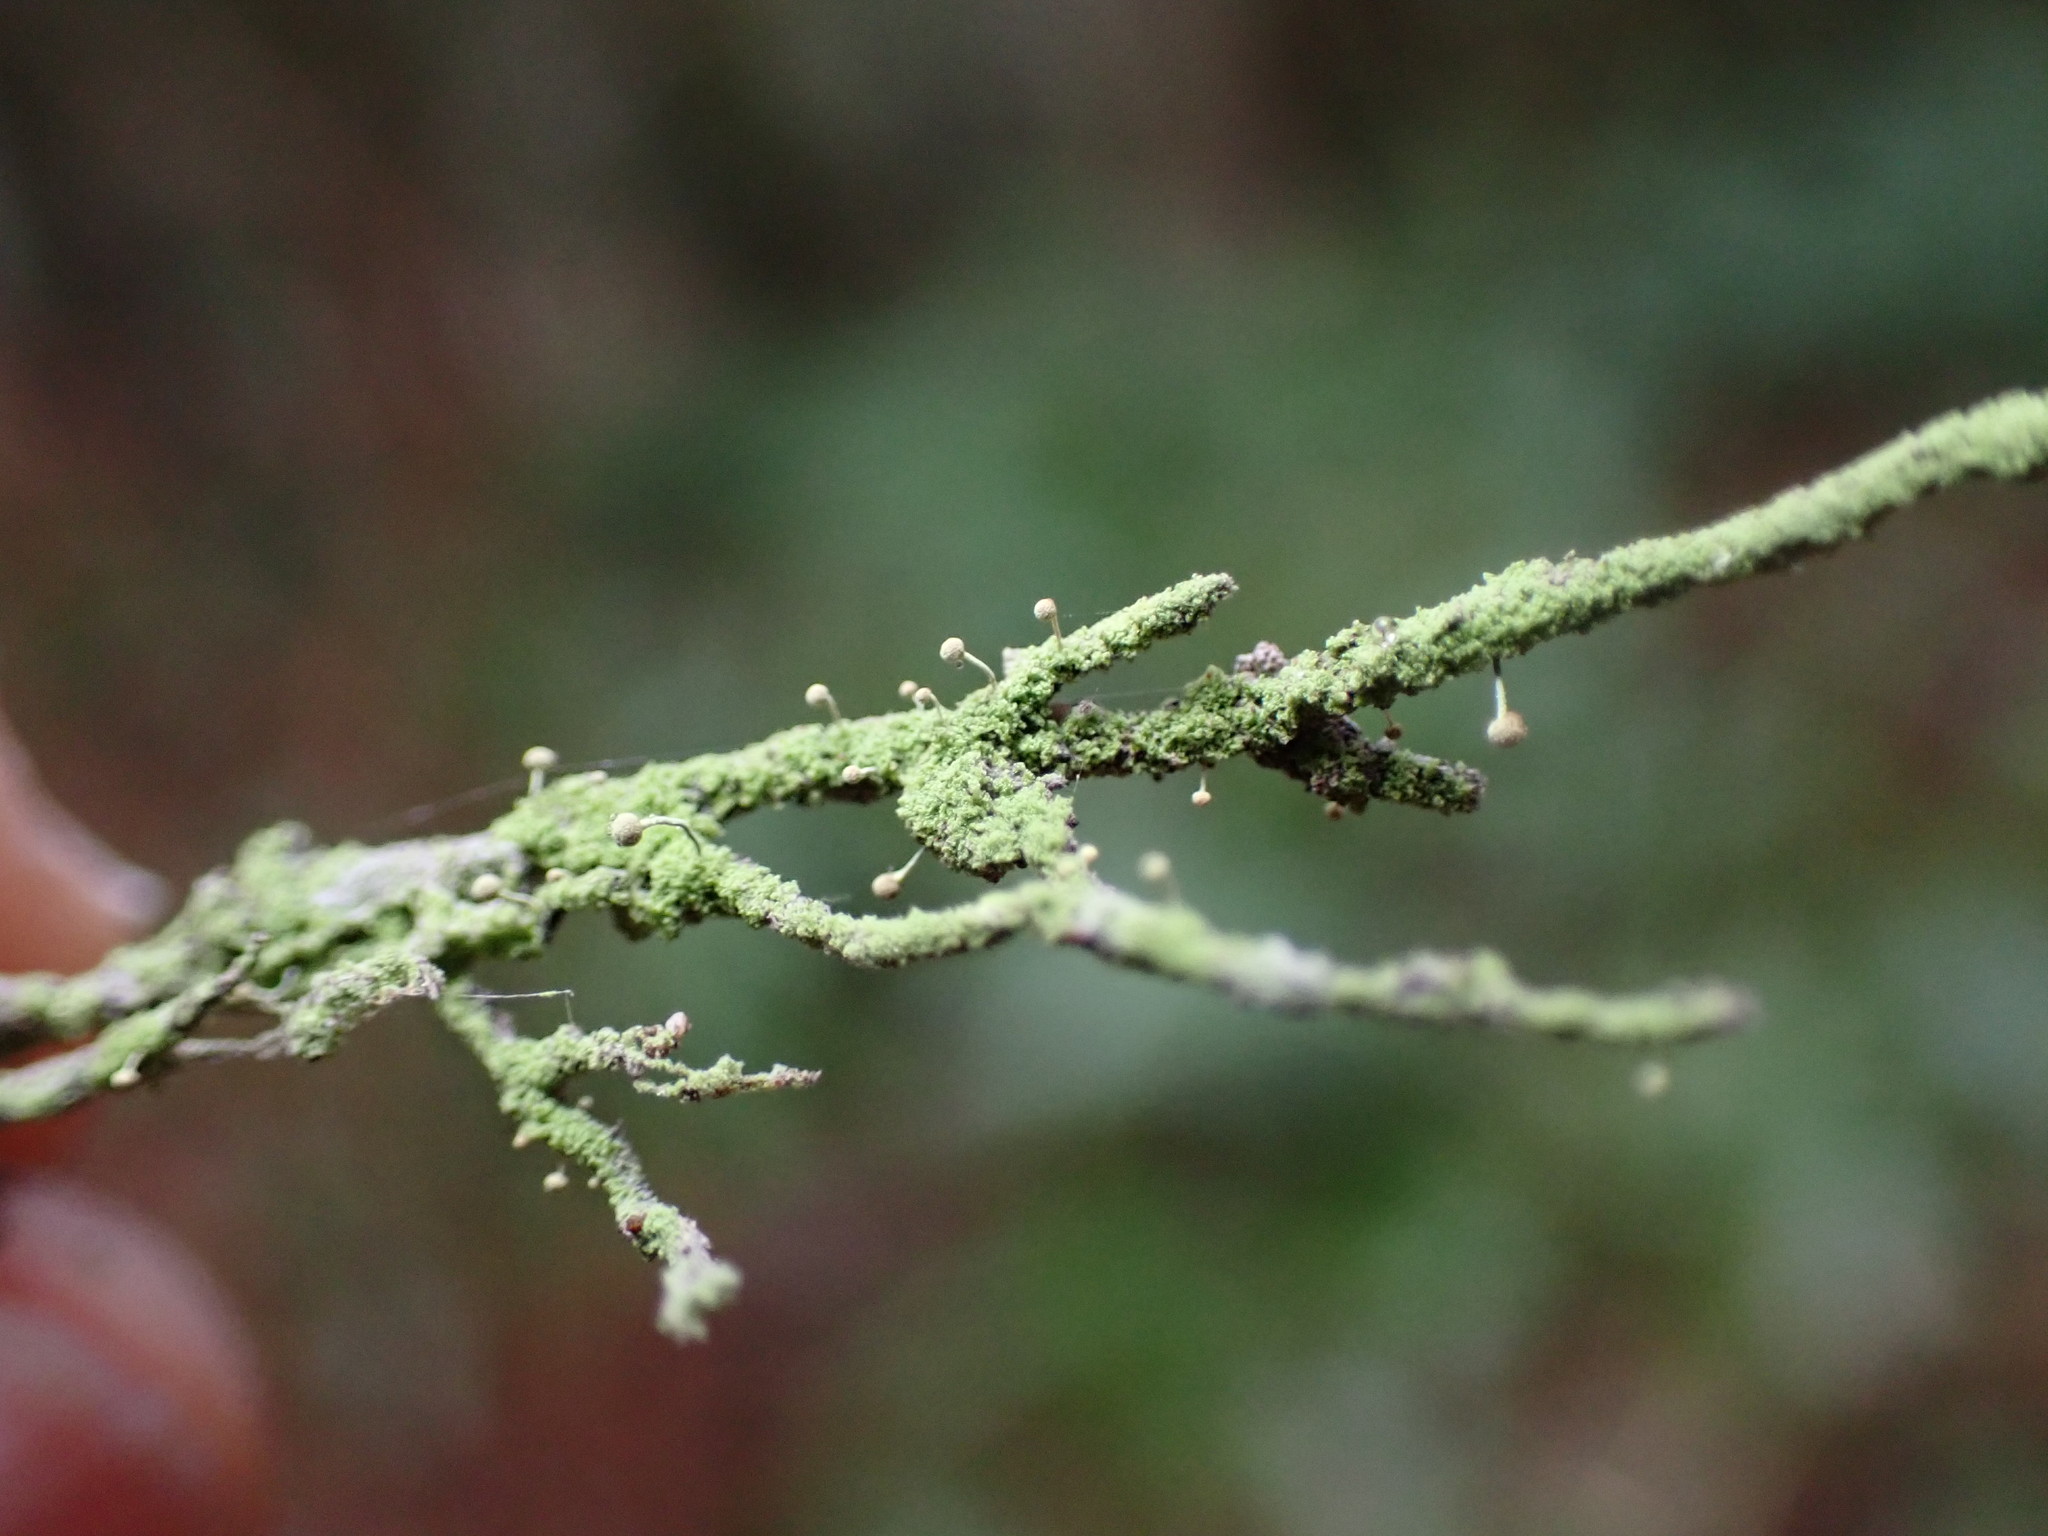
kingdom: Fungi
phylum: Ascomycota
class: Coniocybomycetes
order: Coniocybales
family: Coniocybaceae
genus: Chaenotheca
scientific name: Chaenotheca furfuracea
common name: Sulphur stubble lichen
